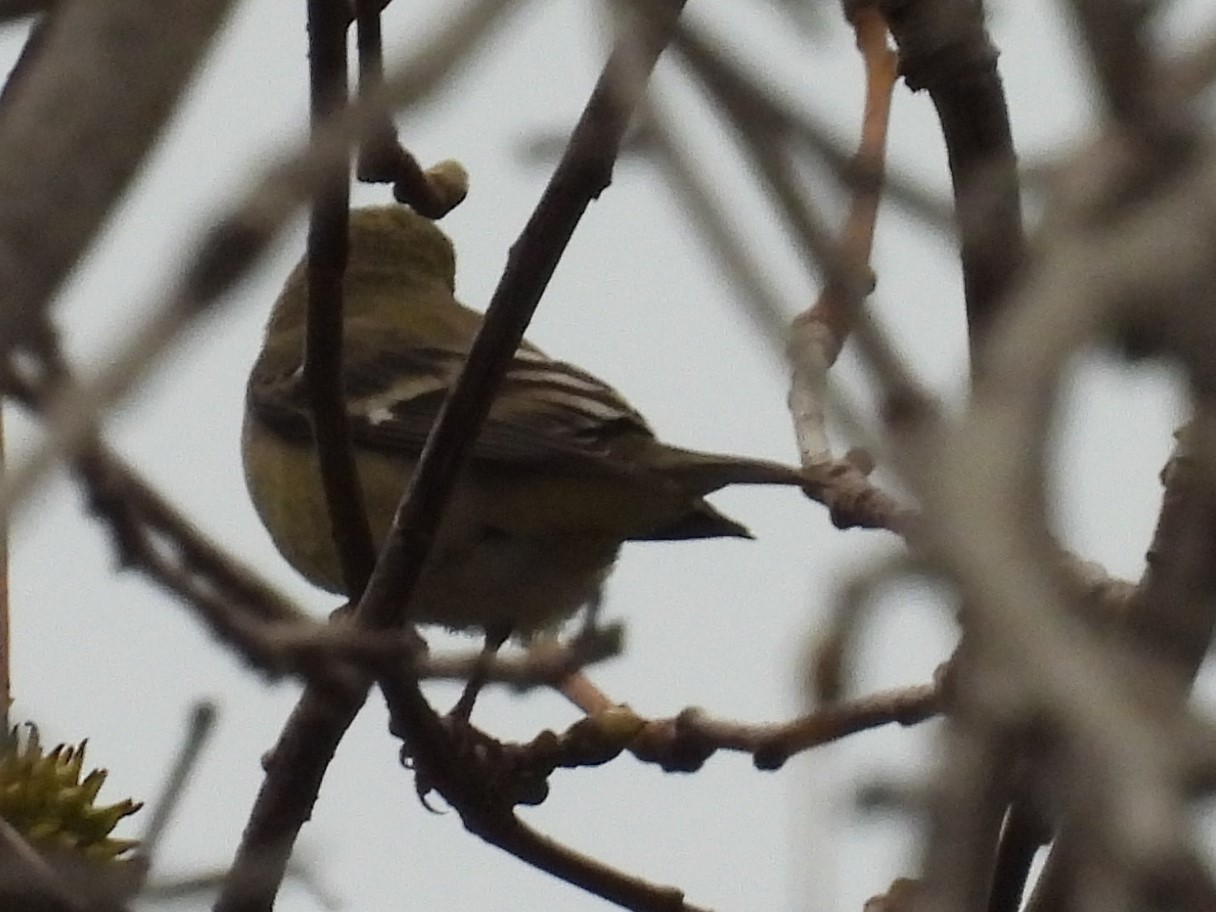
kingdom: Animalia
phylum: Chordata
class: Aves
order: Passeriformes
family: Fringillidae
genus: Spinus
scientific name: Spinus psaltria
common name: Lesser goldfinch
